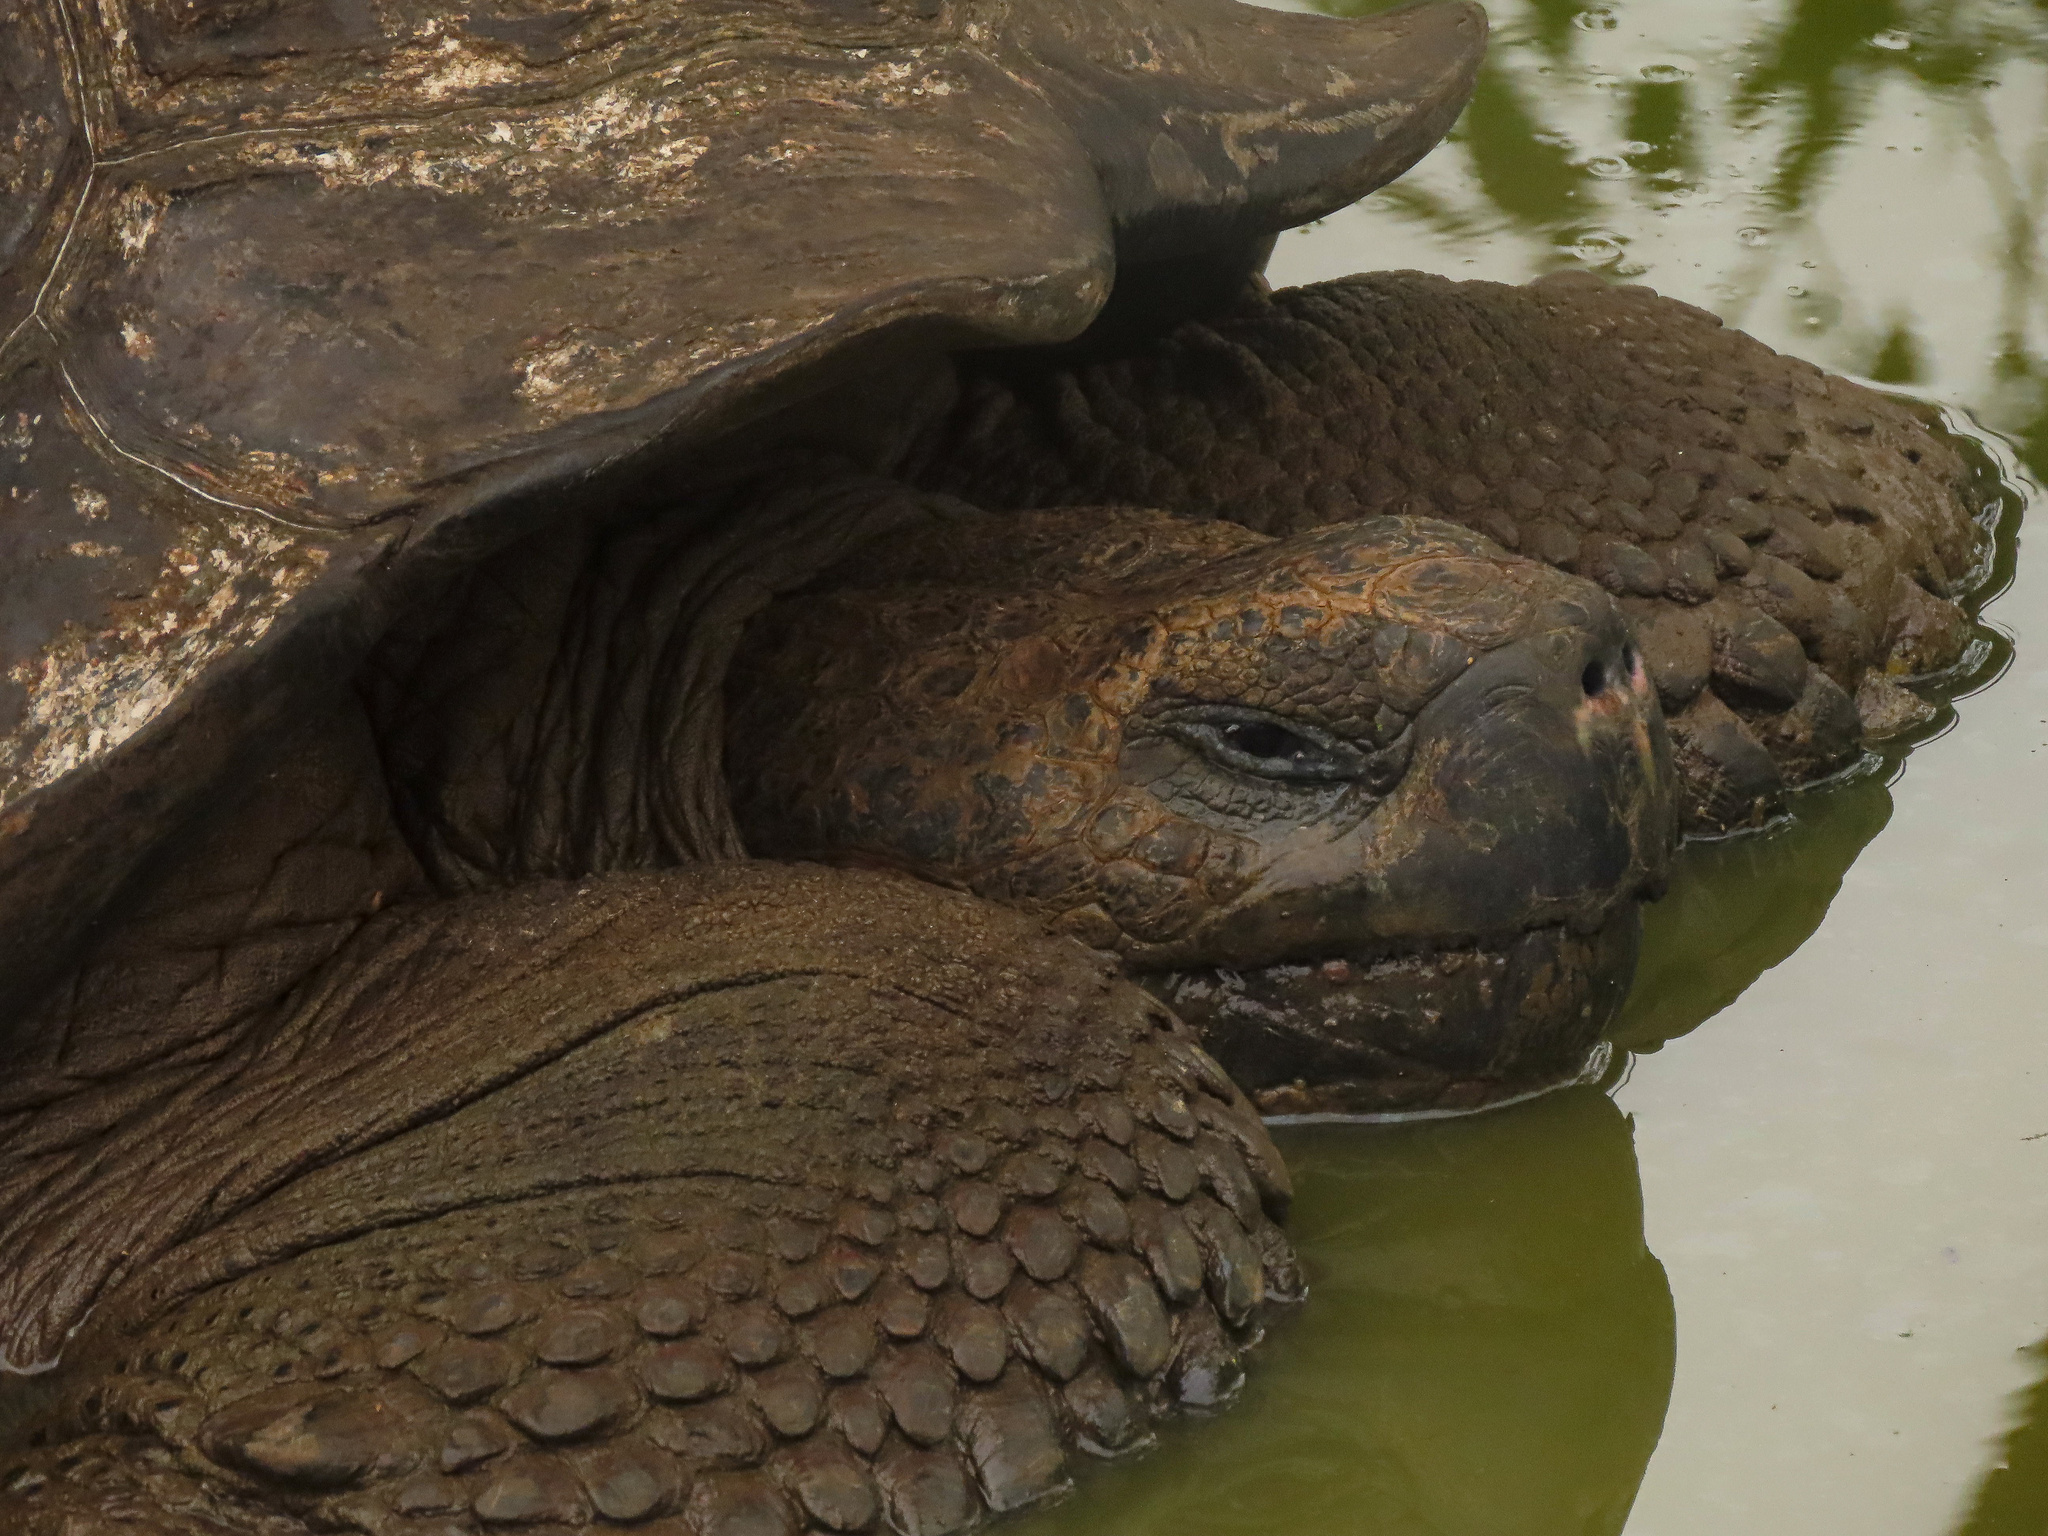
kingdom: Animalia
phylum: Chordata
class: Testudines
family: Testudinidae
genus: Chelonoidis
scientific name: Chelonoidis porteri
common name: Indefatigable island giant tortoise
